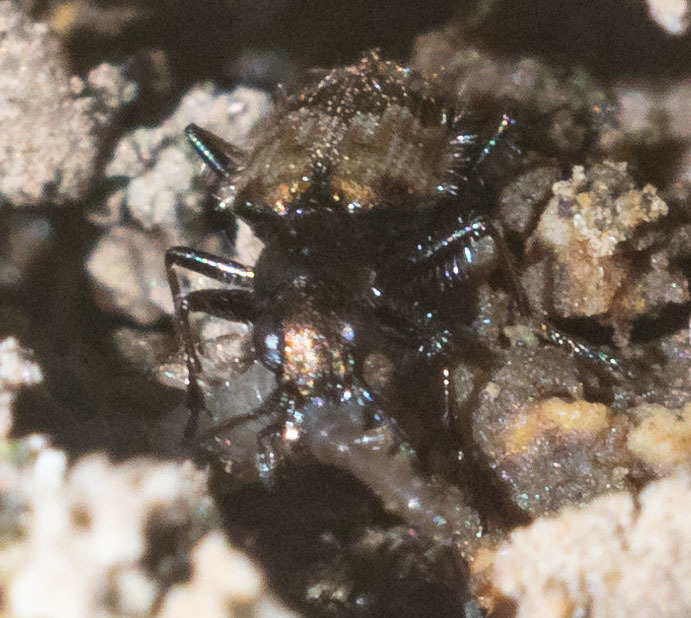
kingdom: Animalia
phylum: Arthropoda
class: Insecta
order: Coleoptera
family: Carabidae
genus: Lachnophorus
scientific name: Lachnophorus elegantulus
